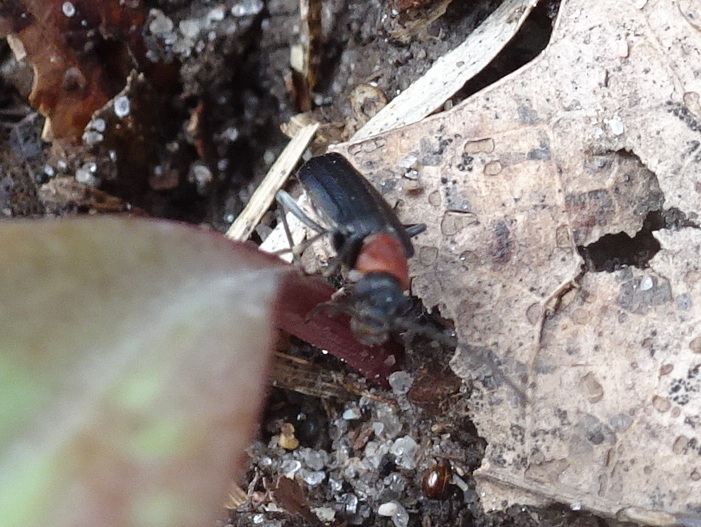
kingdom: Animalia
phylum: Arthropoda
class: Insecta
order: Coleoptera
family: Oedemeridae
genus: Ischnomera
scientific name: Ischnomera
